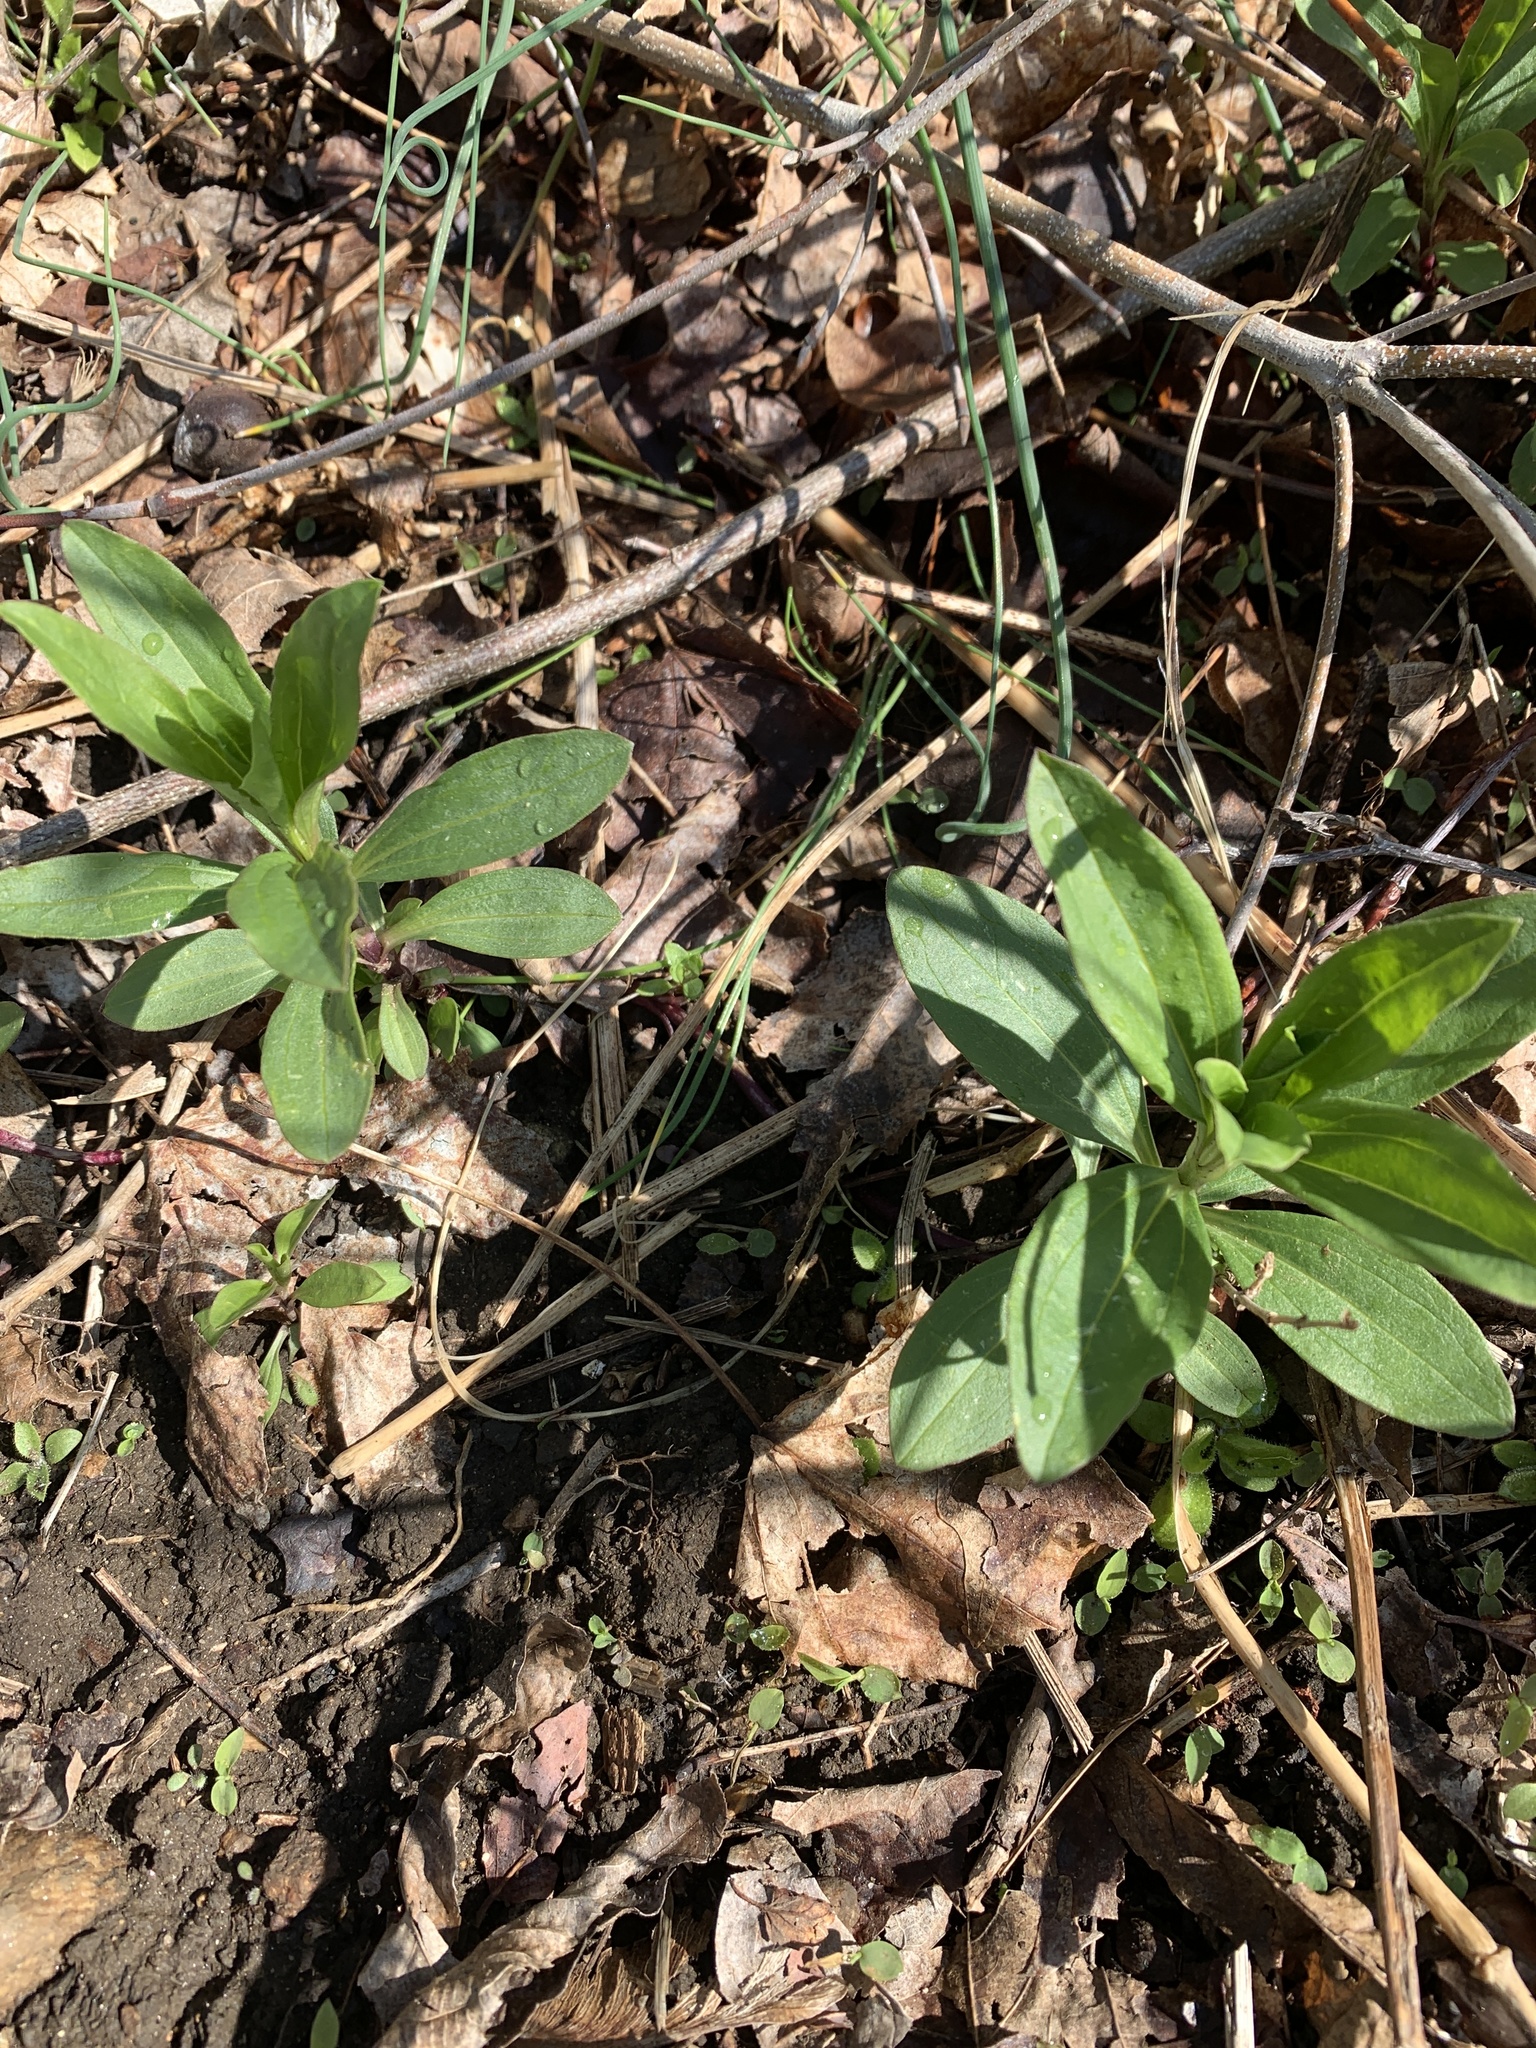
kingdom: Plantae
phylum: Tracheophyta
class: Magnoliopsida
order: Caryophyllales
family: Caryophyllaceae
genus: Saponaria
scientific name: Saponaria officinalis
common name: Soapwort
